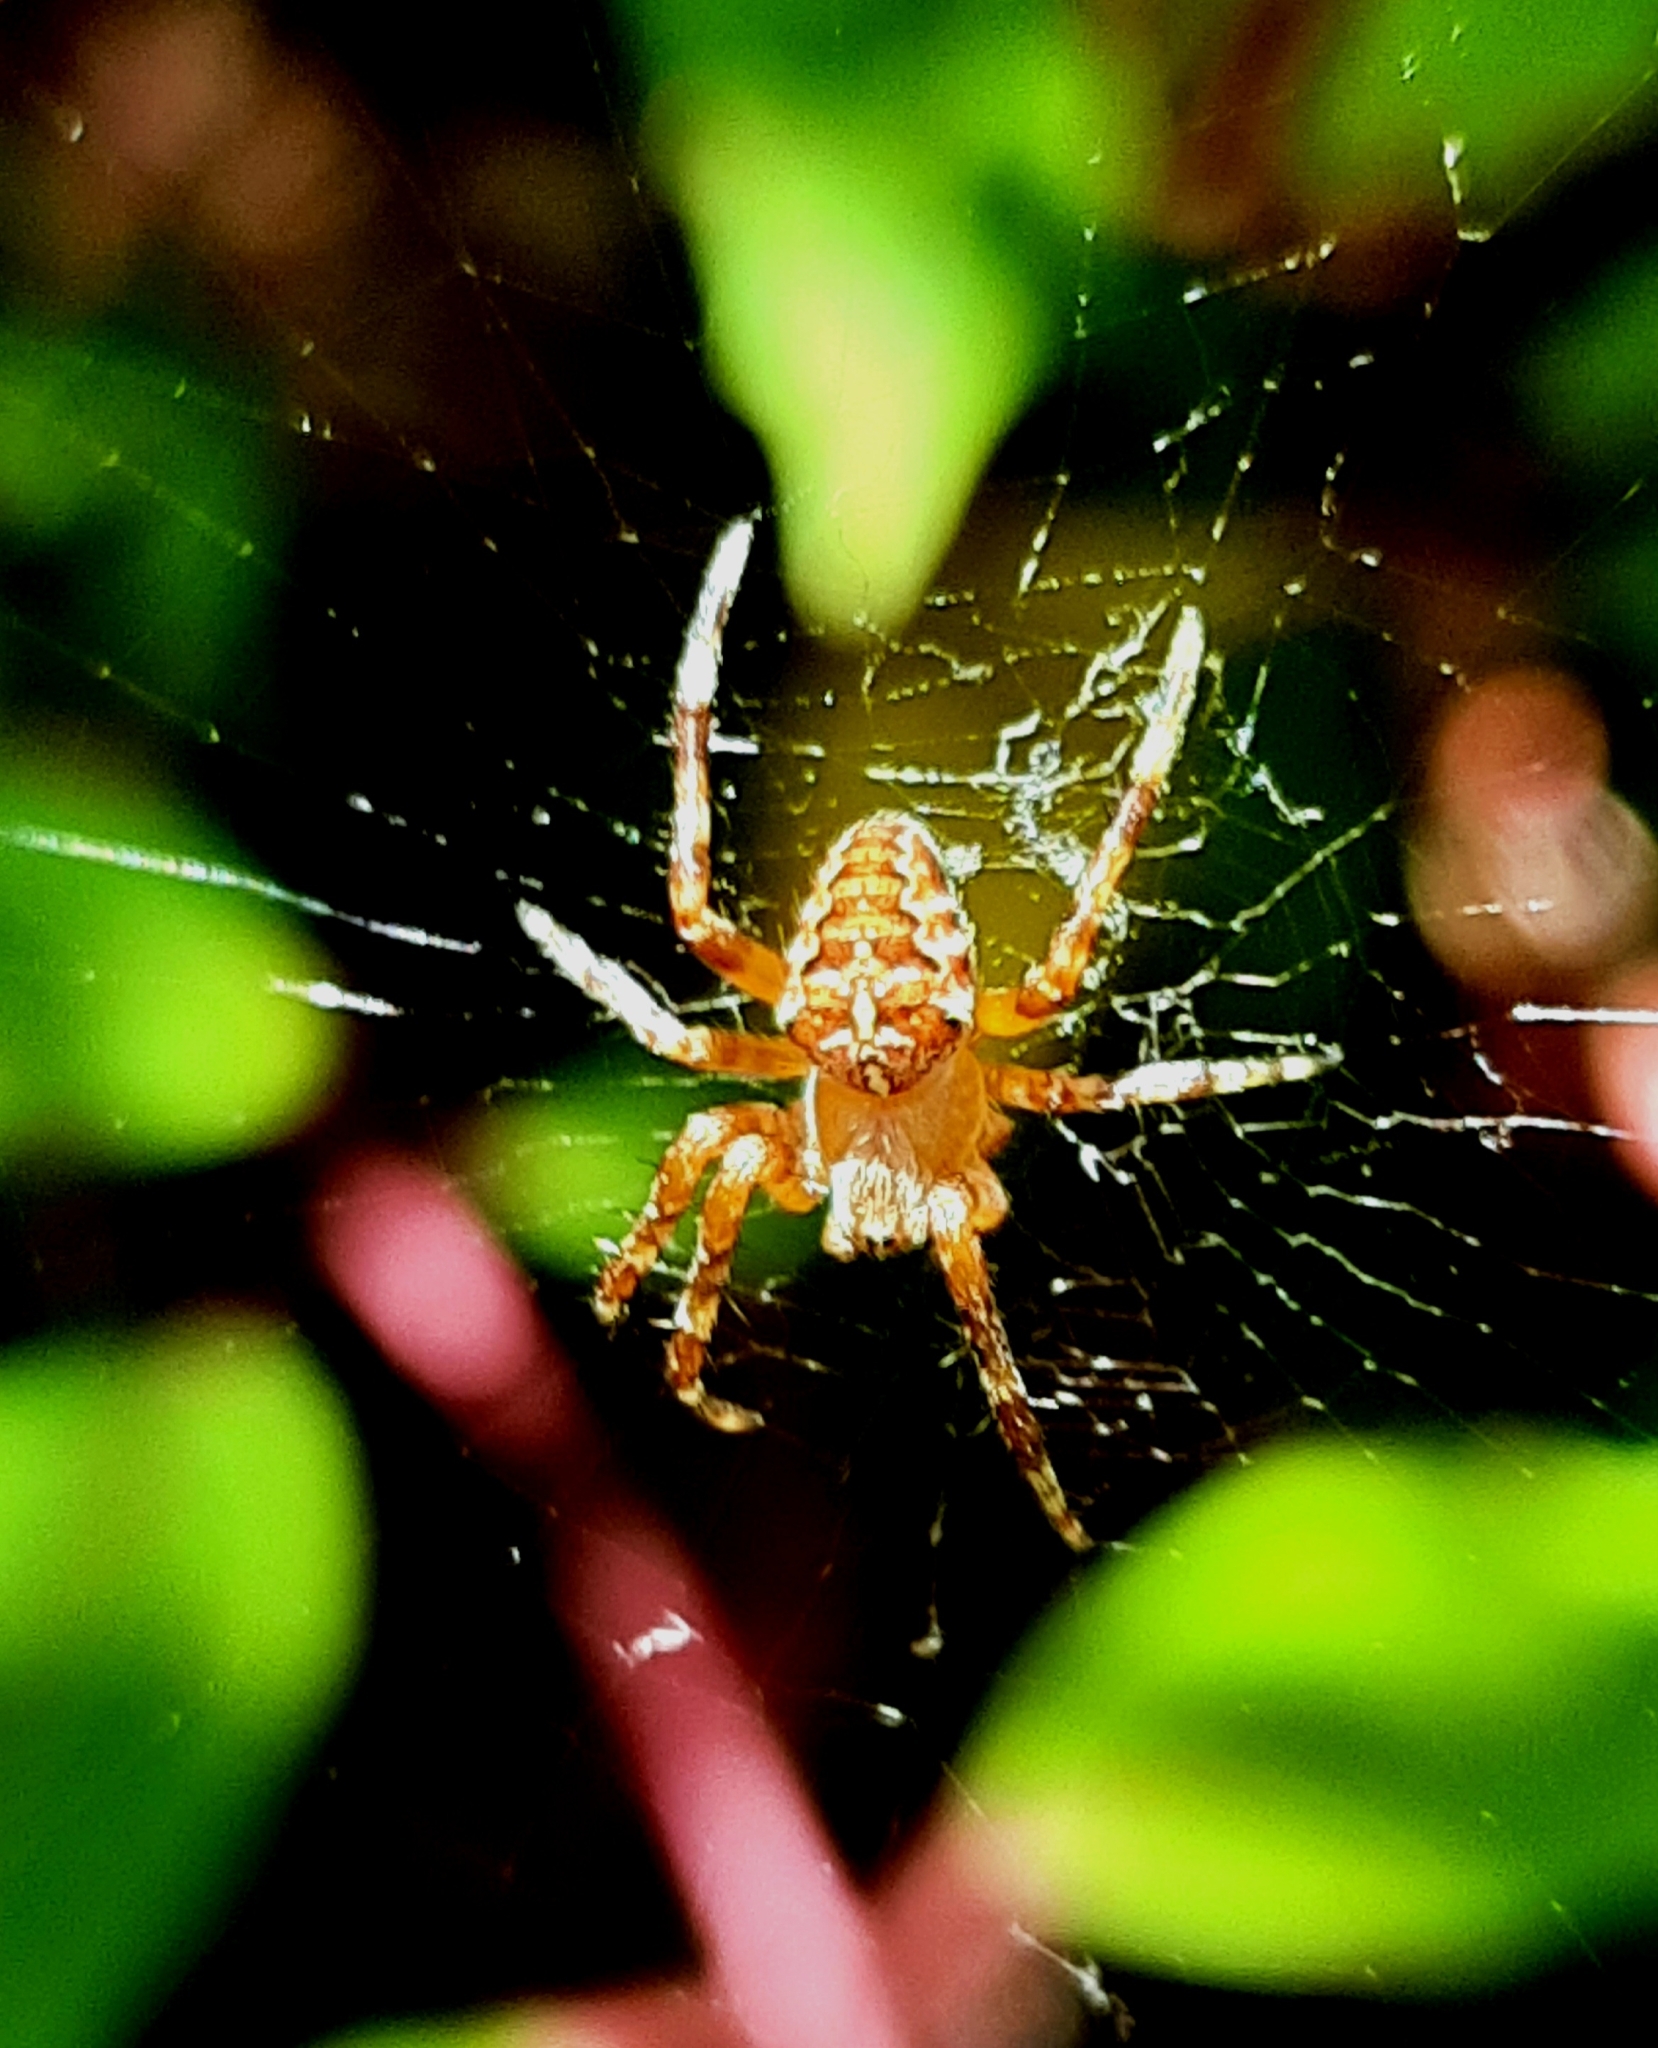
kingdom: Animalia
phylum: Arthropoda
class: Arachnida
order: Araneae
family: Araneidae
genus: Araneus
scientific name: Araneus diadematus
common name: Cross orbweaver
